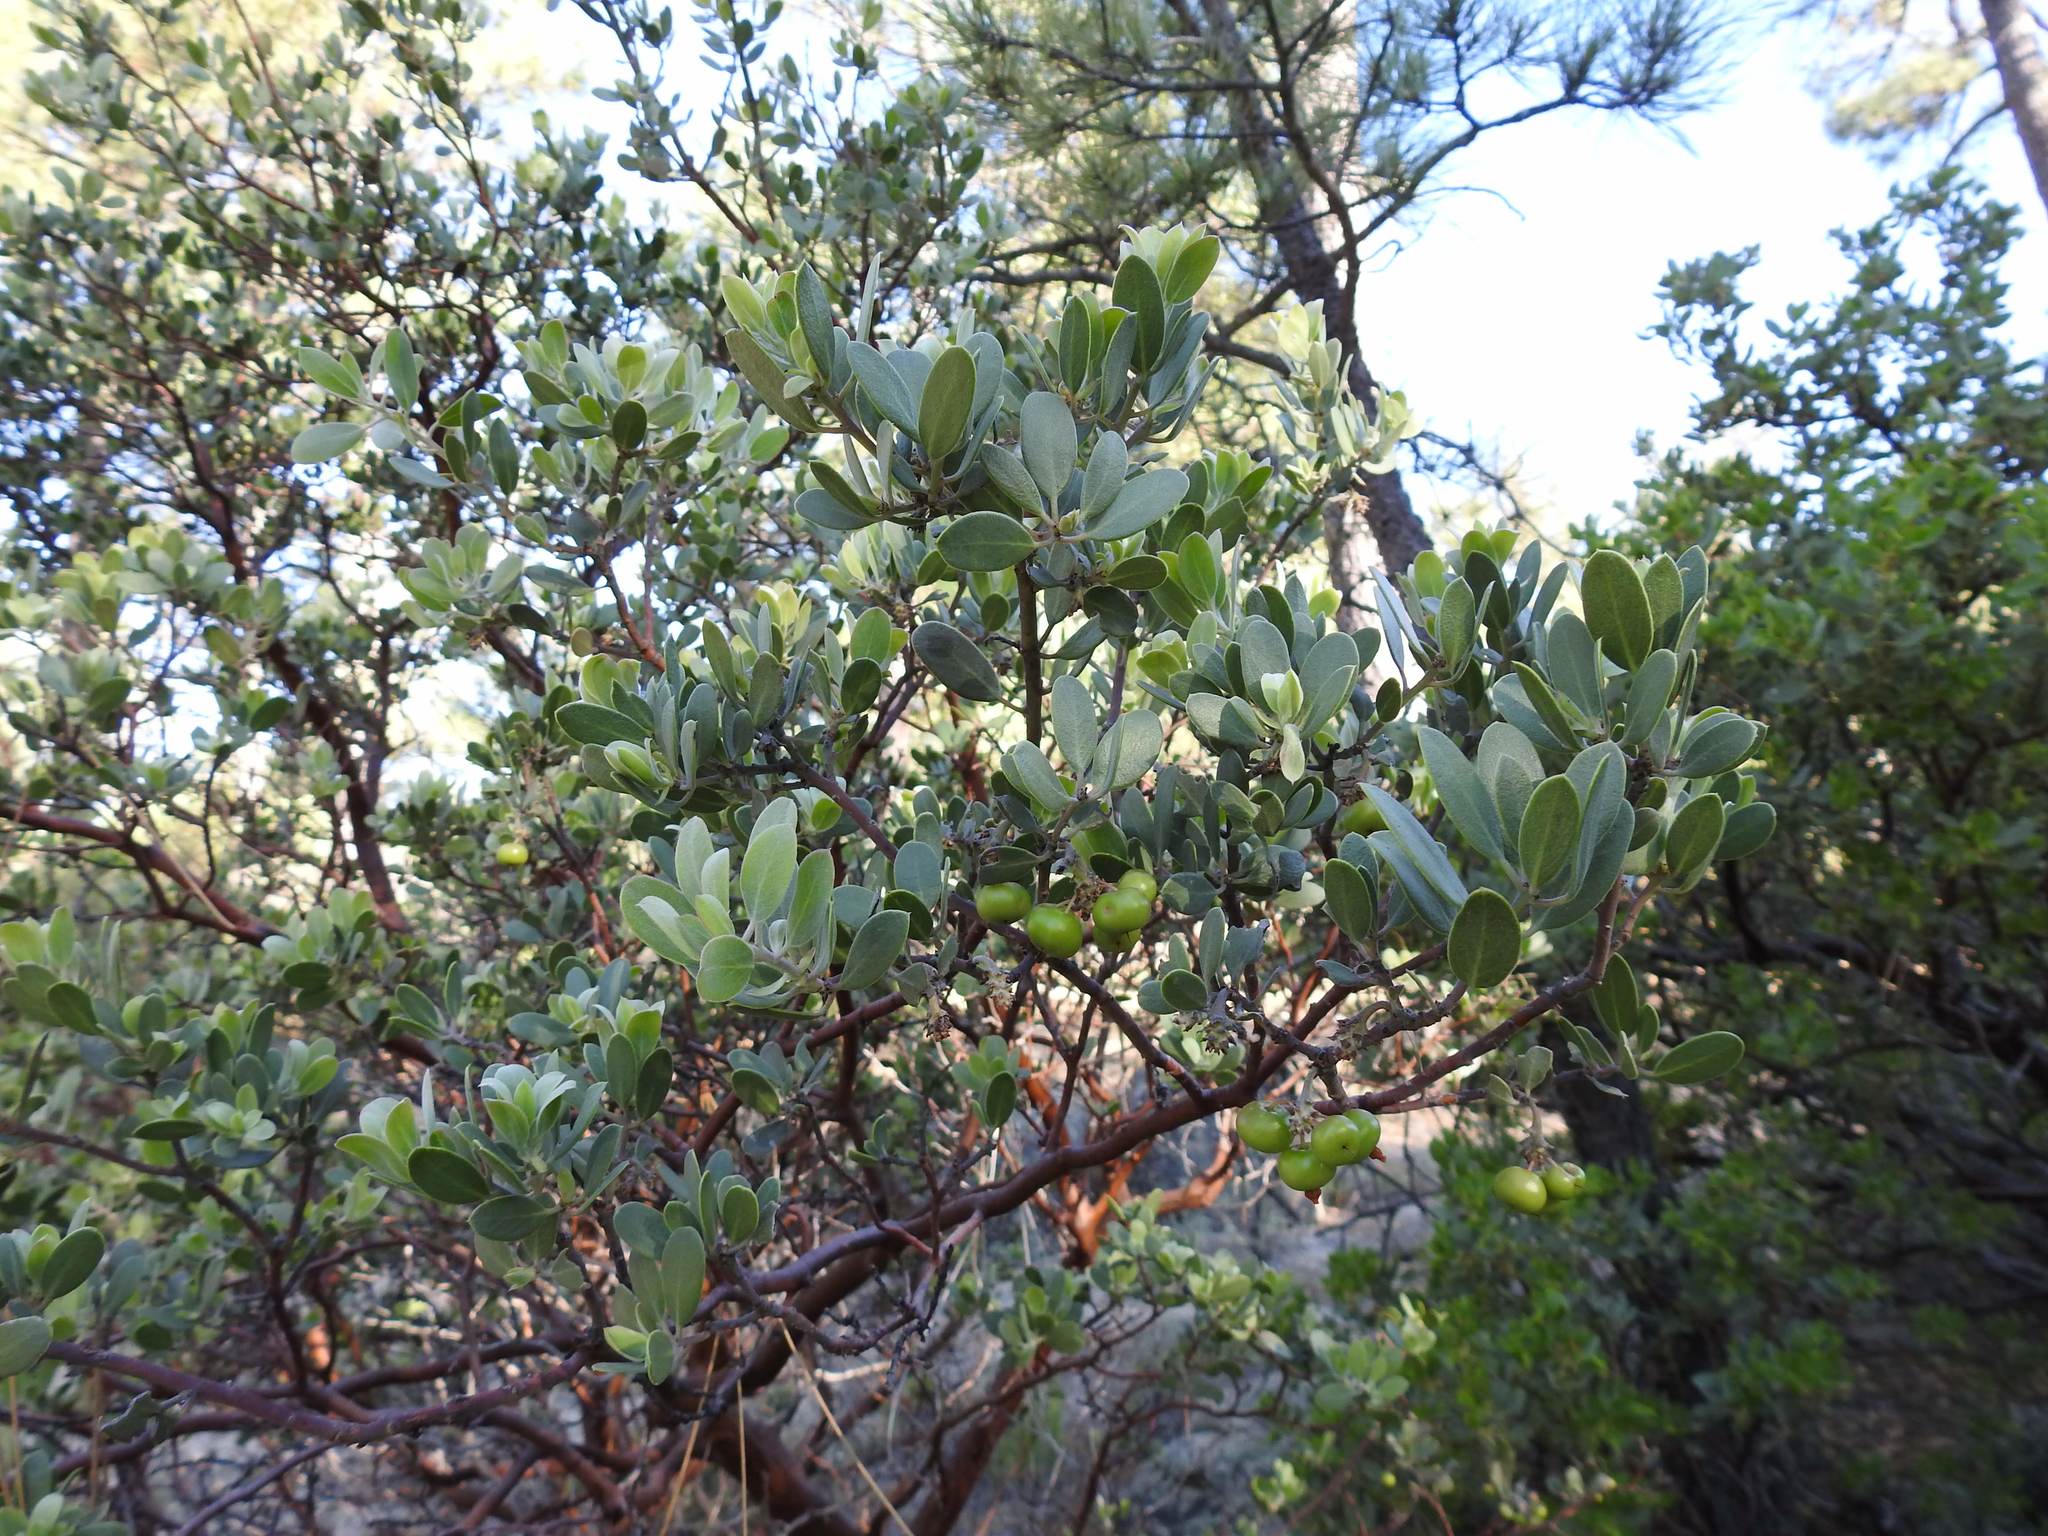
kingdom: Plantae
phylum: Tracheophyta
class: Magnoliopsida
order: Ericales
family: Ericaceae
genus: Arctostaphylos
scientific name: Arctostaphylos pungens
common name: Mexican manzanita
